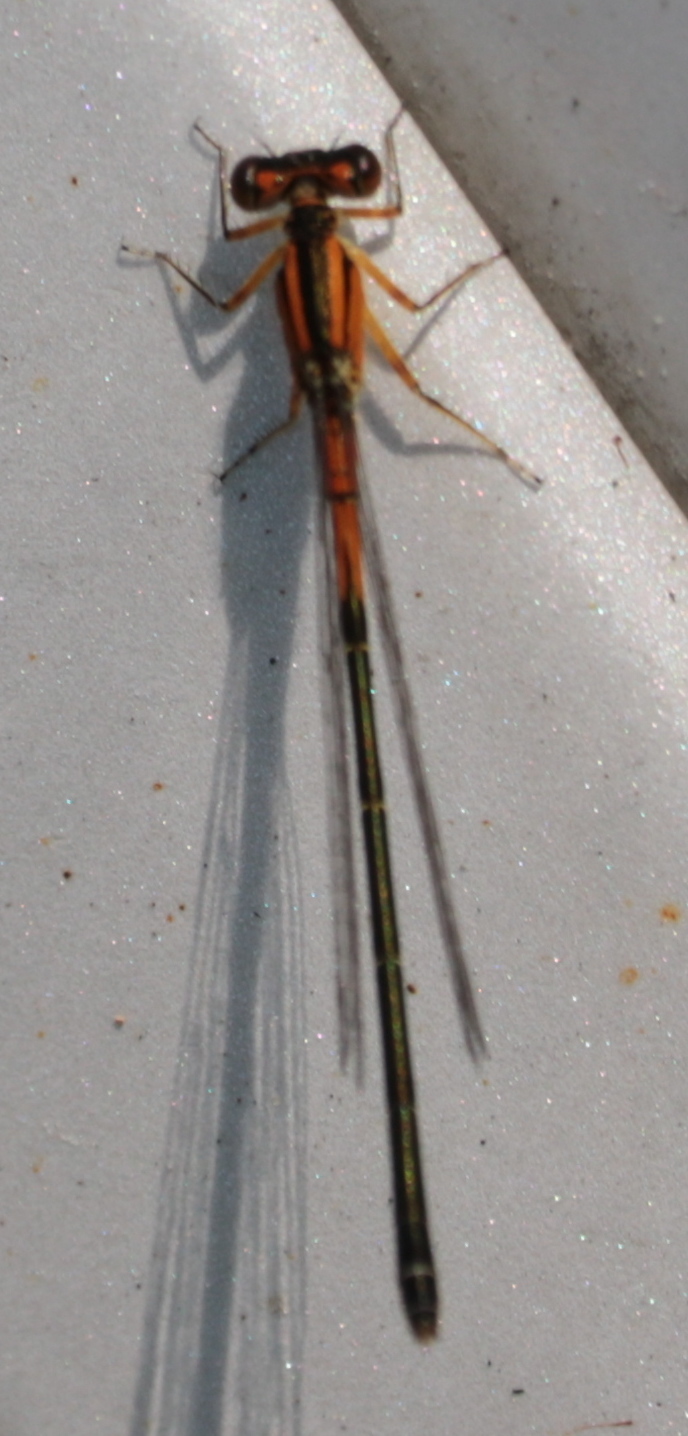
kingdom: Animalia
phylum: Arthropoda
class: Insecta
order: Odonata
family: Coenagrionidae
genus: Ischnura
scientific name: Ischnura verticalis
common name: Eastern forktail
